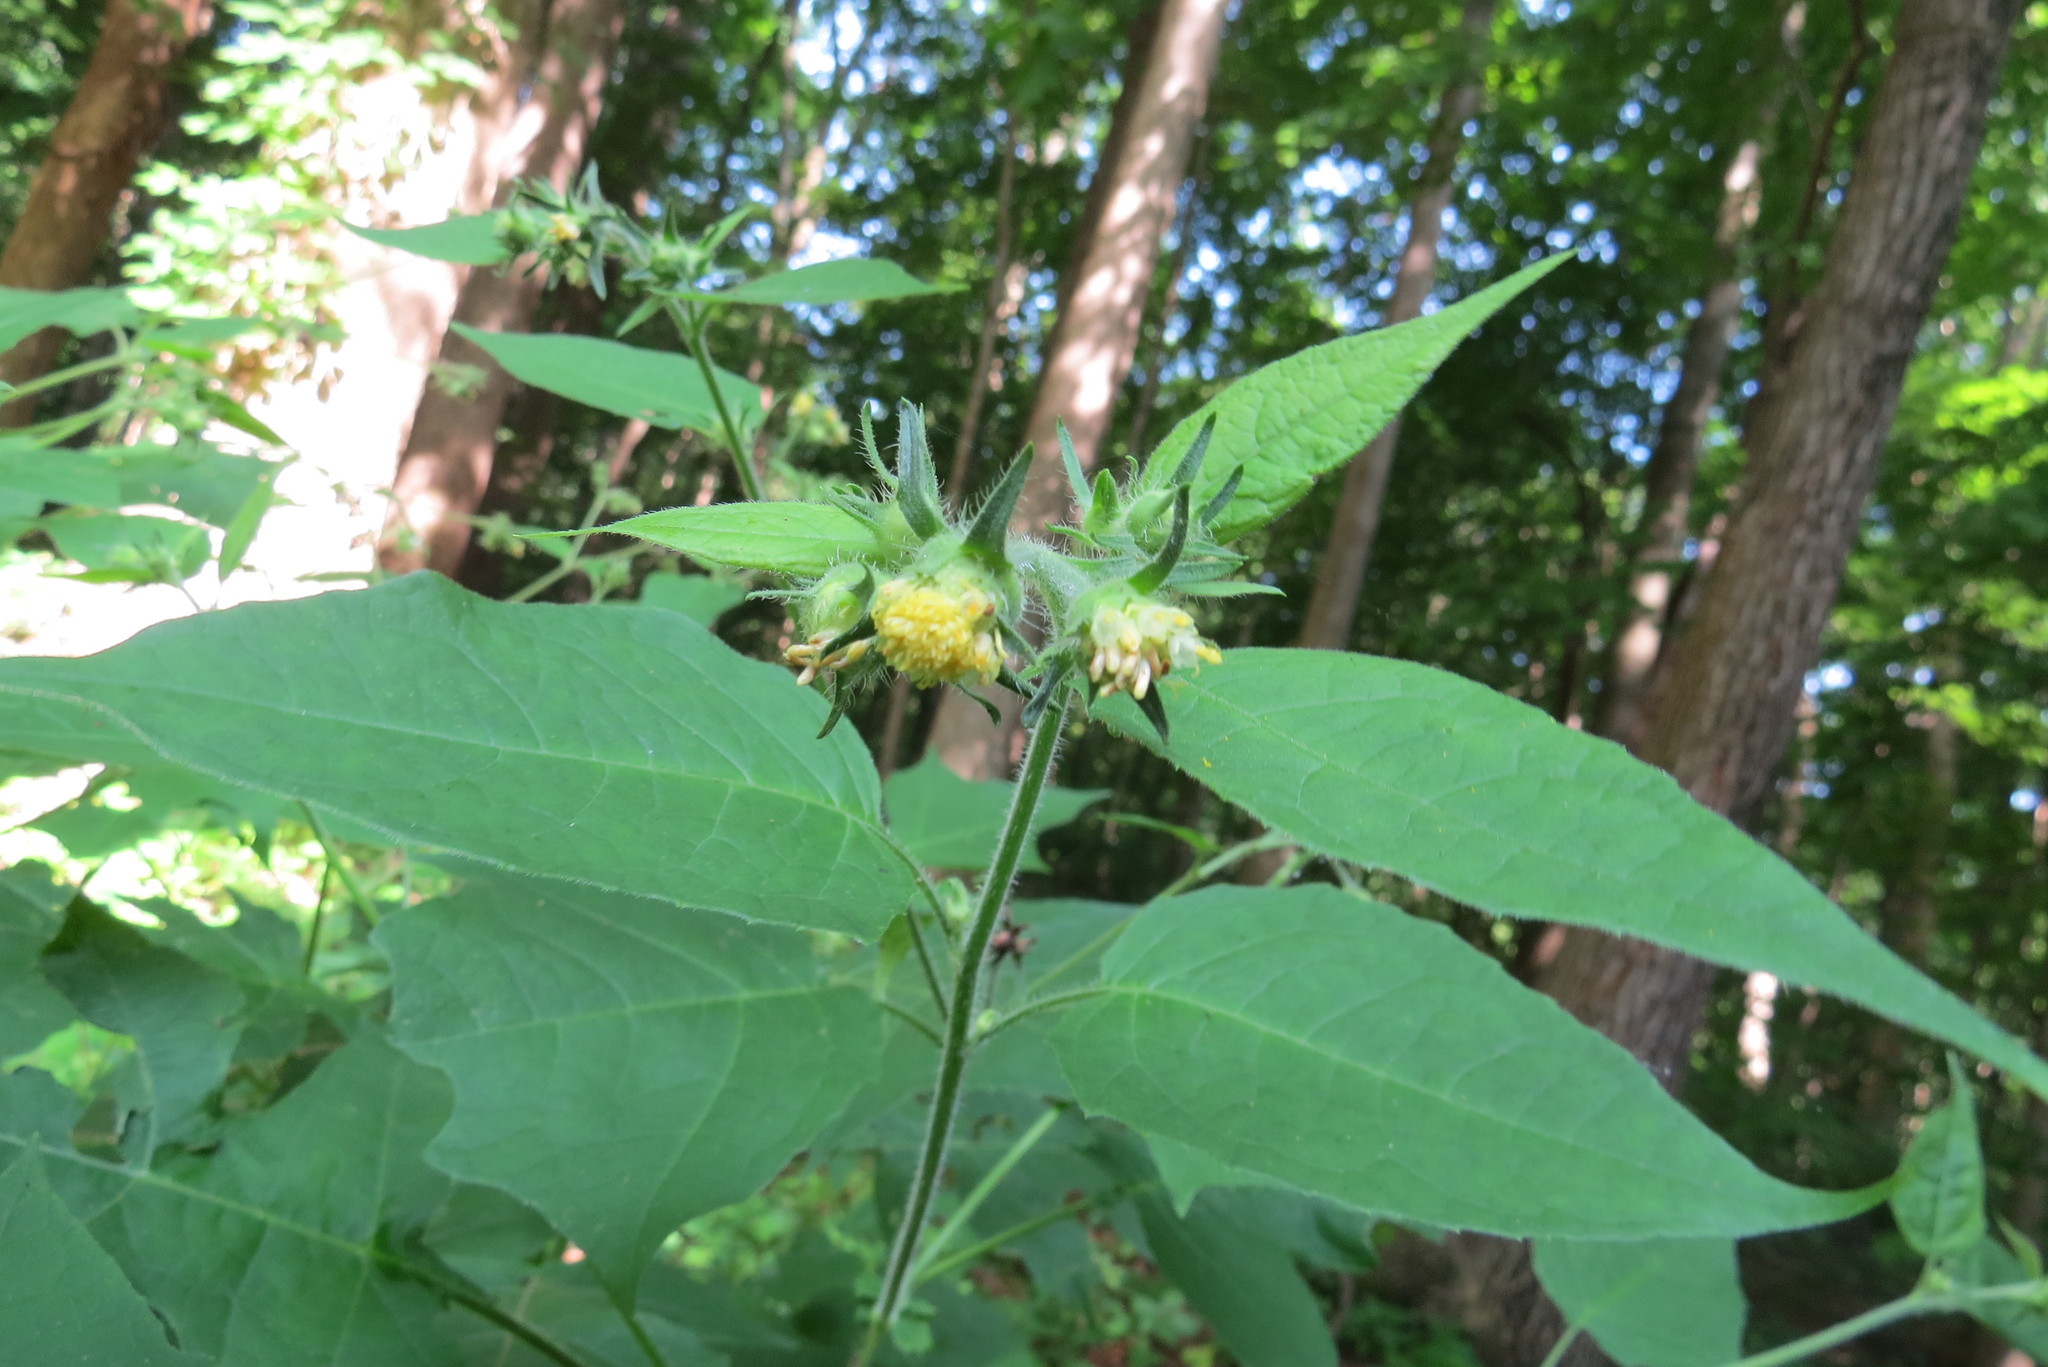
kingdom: Plantae
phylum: Tracheophyta
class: Magnoliopsida
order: Asterales
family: Asteraceae
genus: Polymnia
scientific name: Polymnia canadensis
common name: Pale-flowered leafcup
